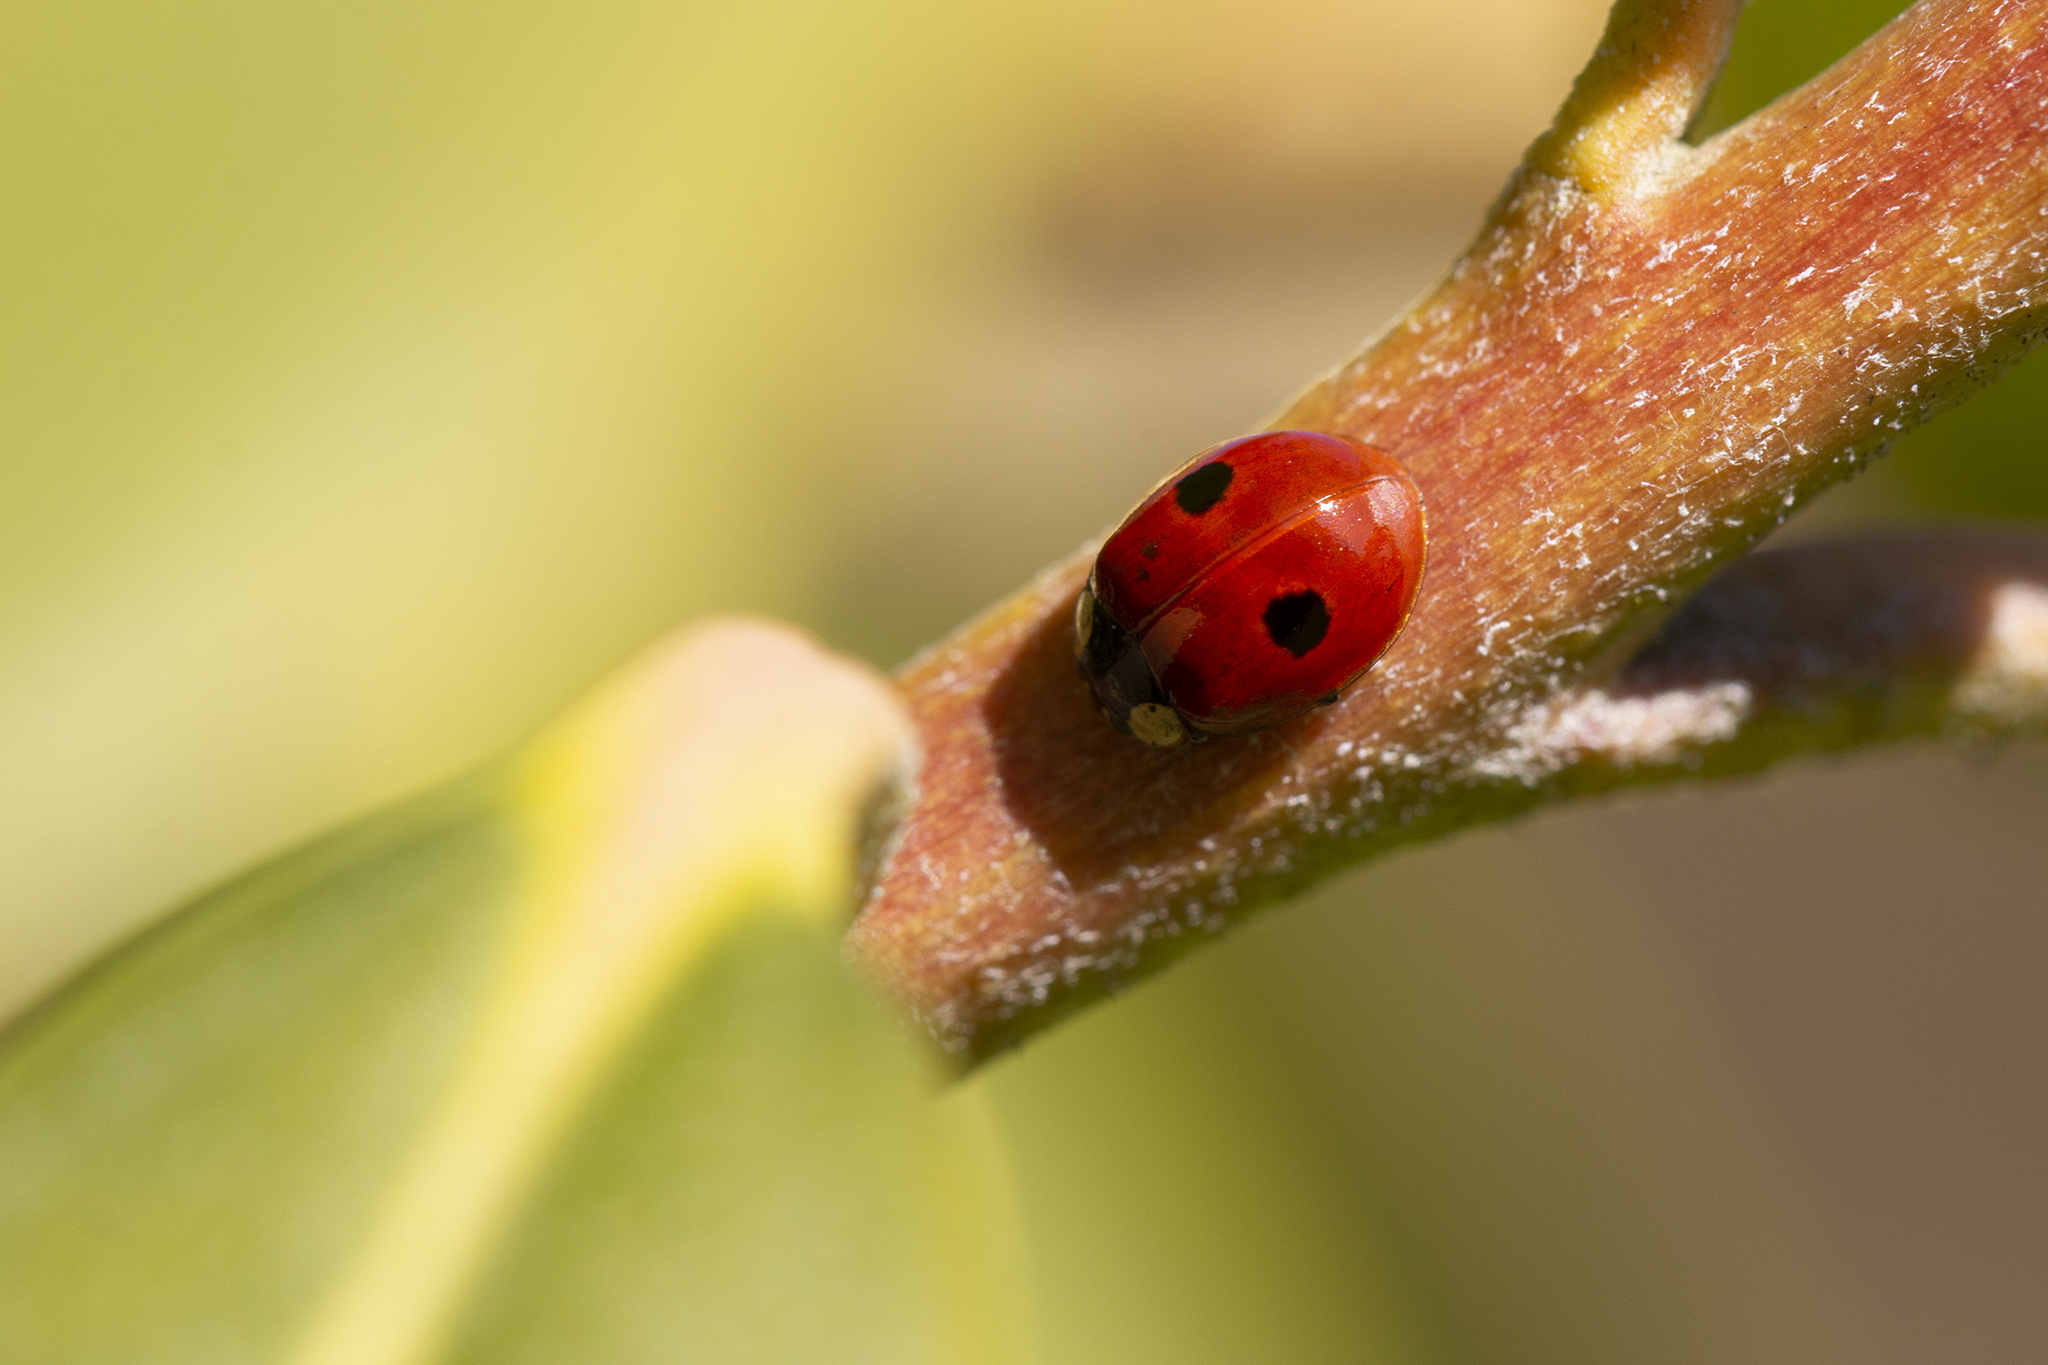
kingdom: Animalia
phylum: Arthropoda
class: Insecta
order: Coleoptera
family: Coccinellidae
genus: Adalia
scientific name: Adalia bipunctata
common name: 2-spot ladybird
